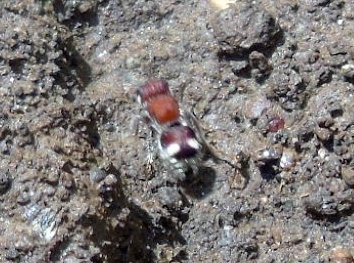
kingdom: Animalia
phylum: Arthropoda
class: Insecta
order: Hymenoptera
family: Mutillidae
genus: Pseudomethoca
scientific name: Pseudomethoca
